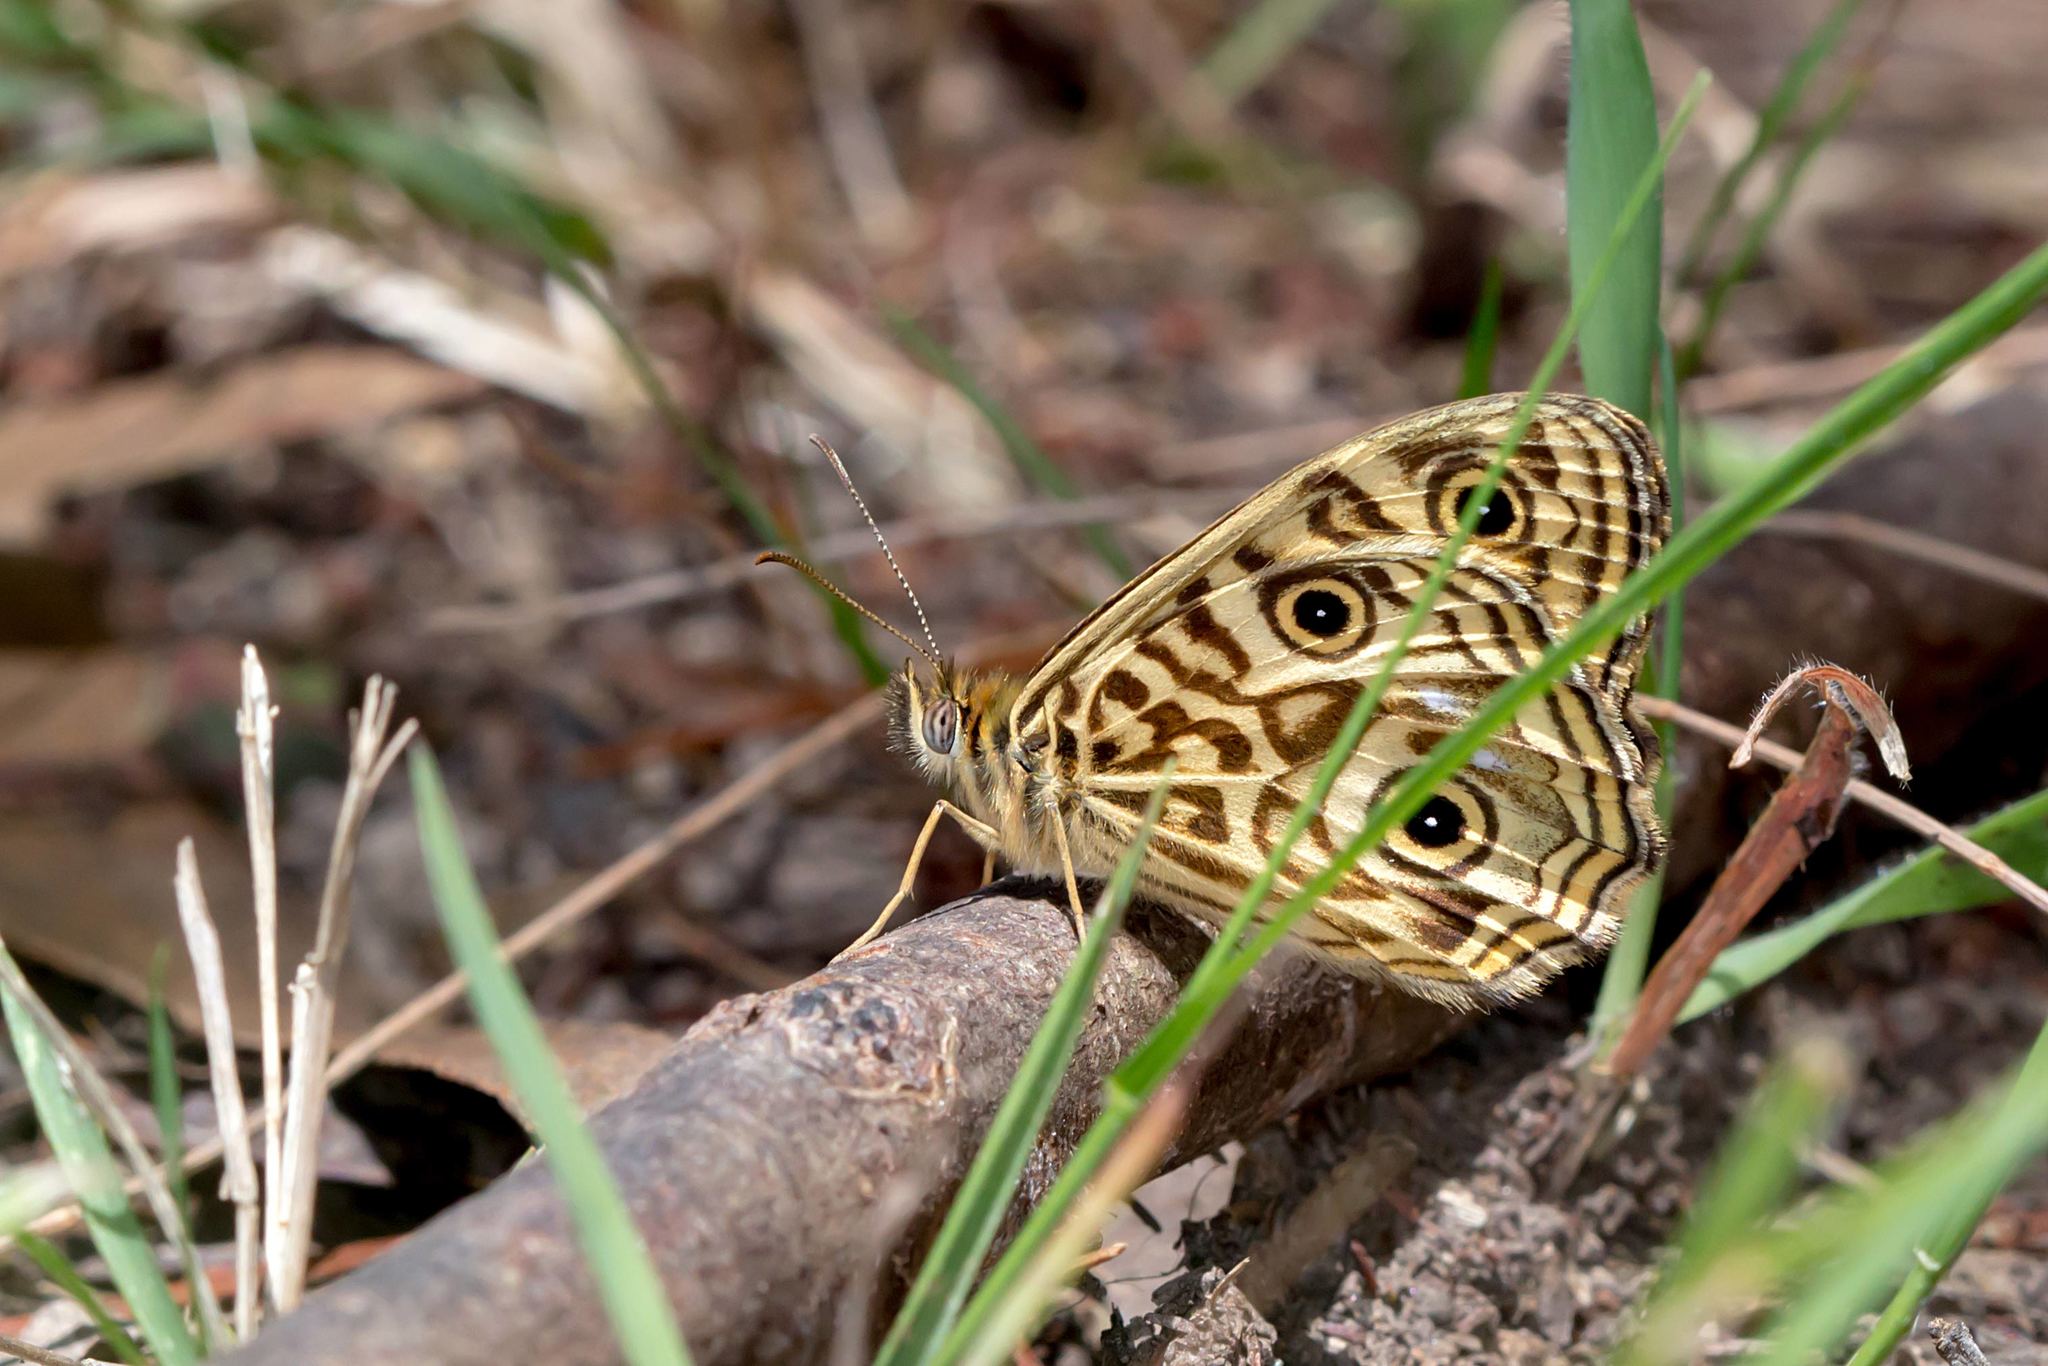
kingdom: Animalia
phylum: Arthropoda
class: Insecta
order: Lepidoptera
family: Nymphalidae
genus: Geitoneura
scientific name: Geitoneura acantha
